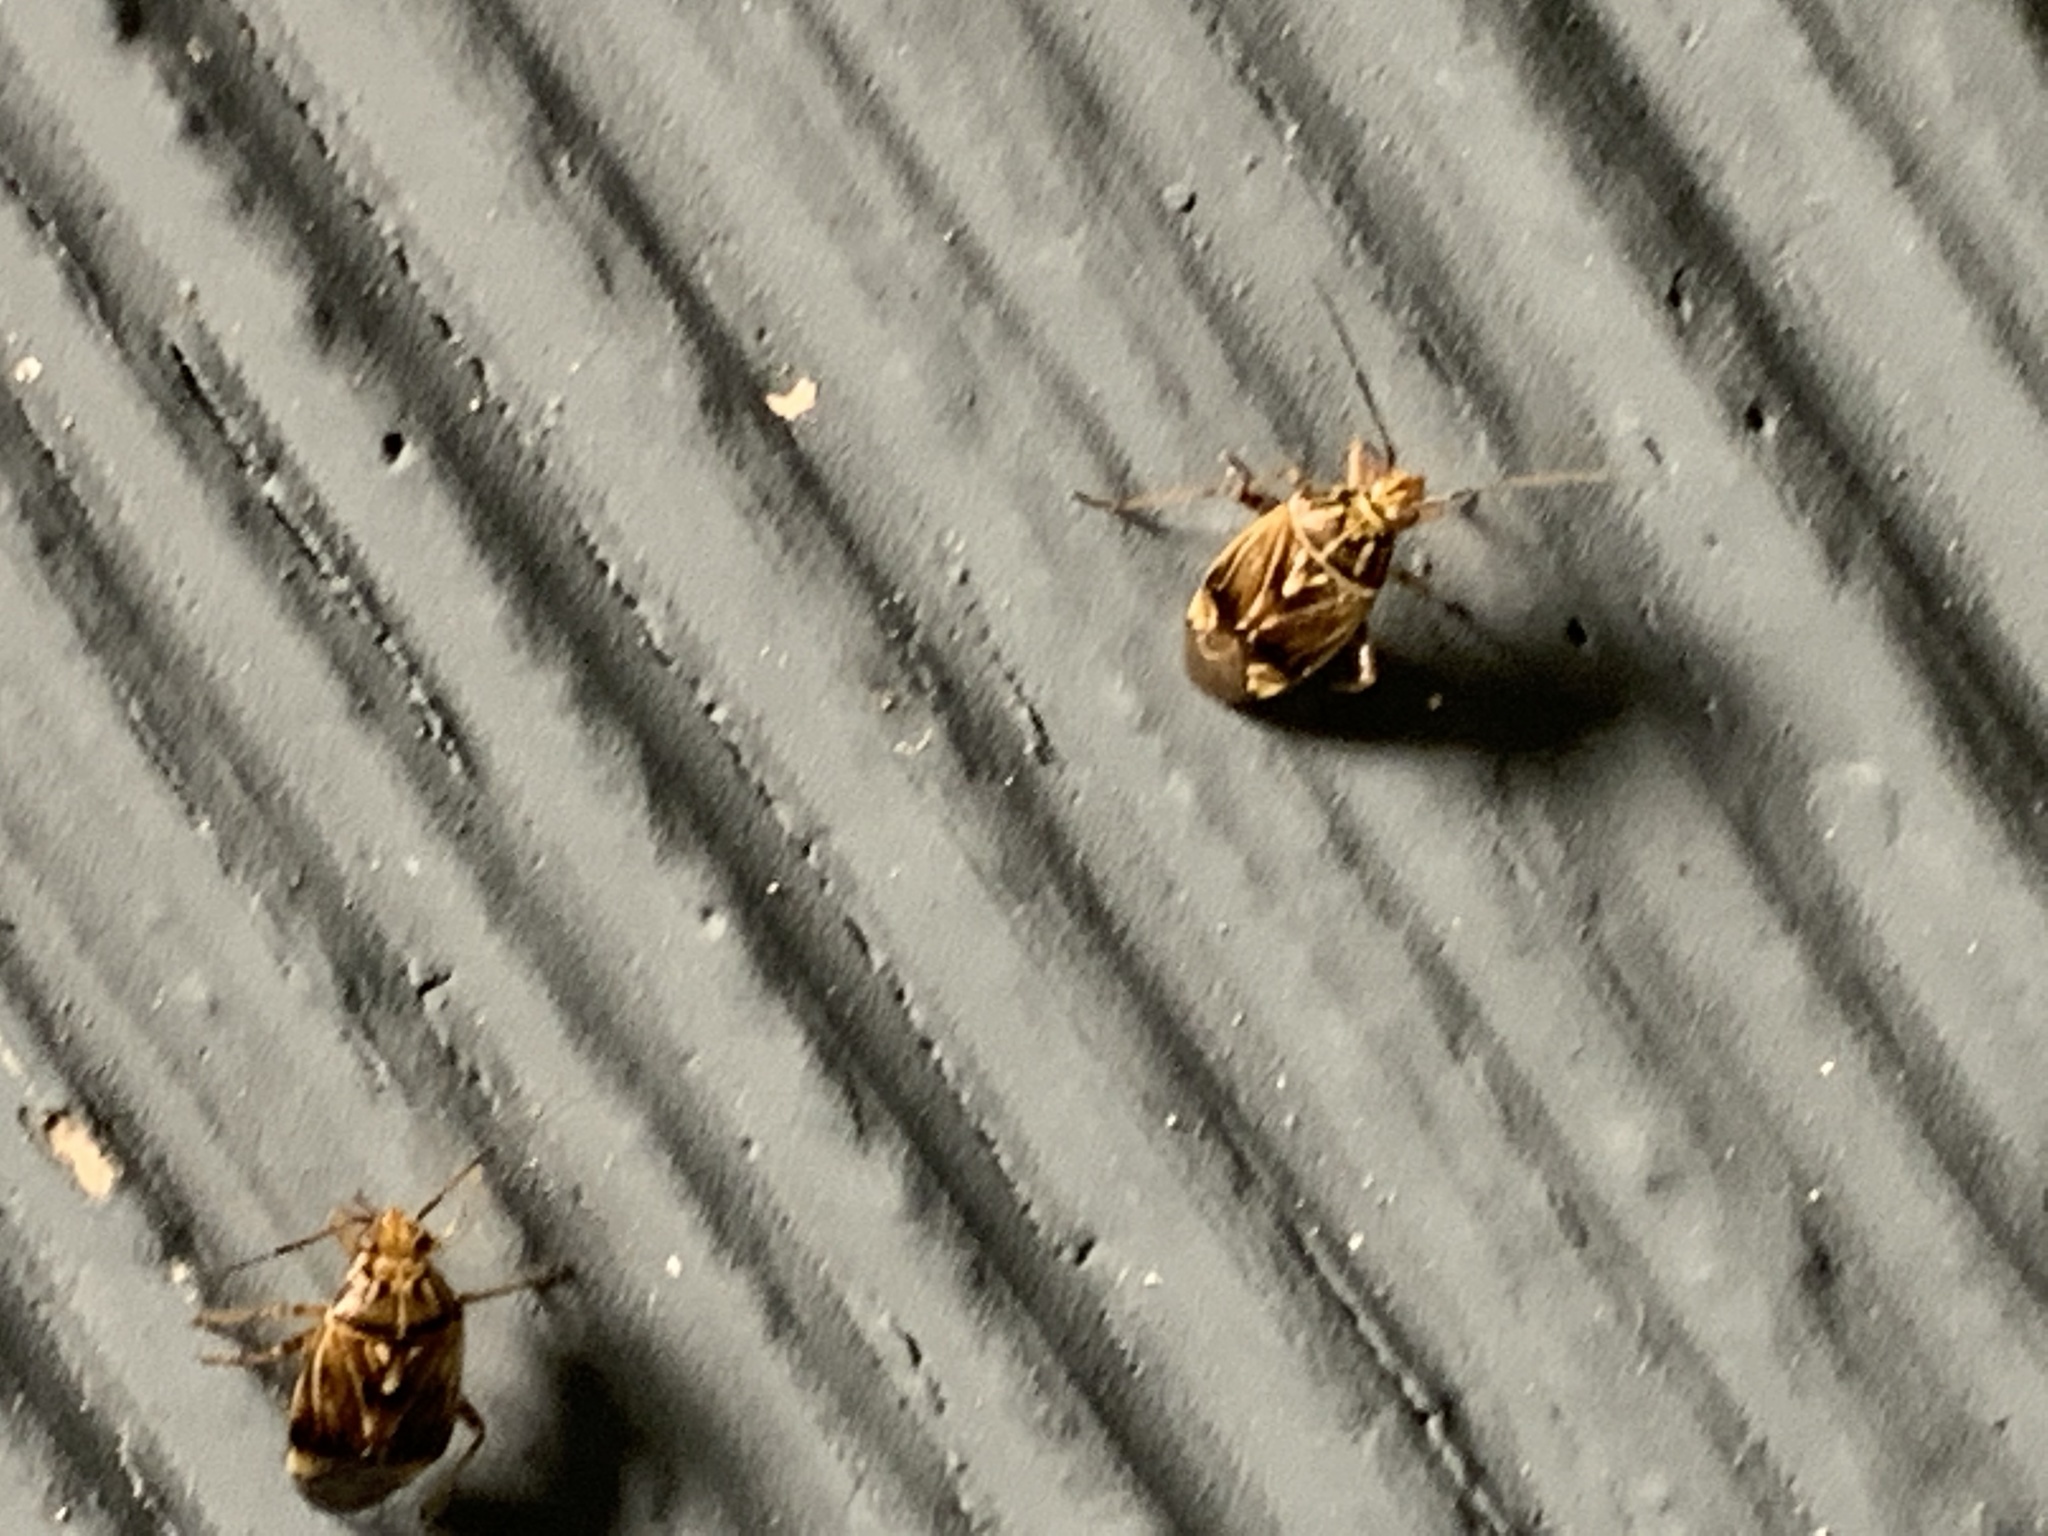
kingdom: Animalia
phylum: Arthropoda
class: Insecta
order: Hemiptera
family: Miridae
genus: Lygus
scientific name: Lygus lineolaris
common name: North american tarnished plant bug
